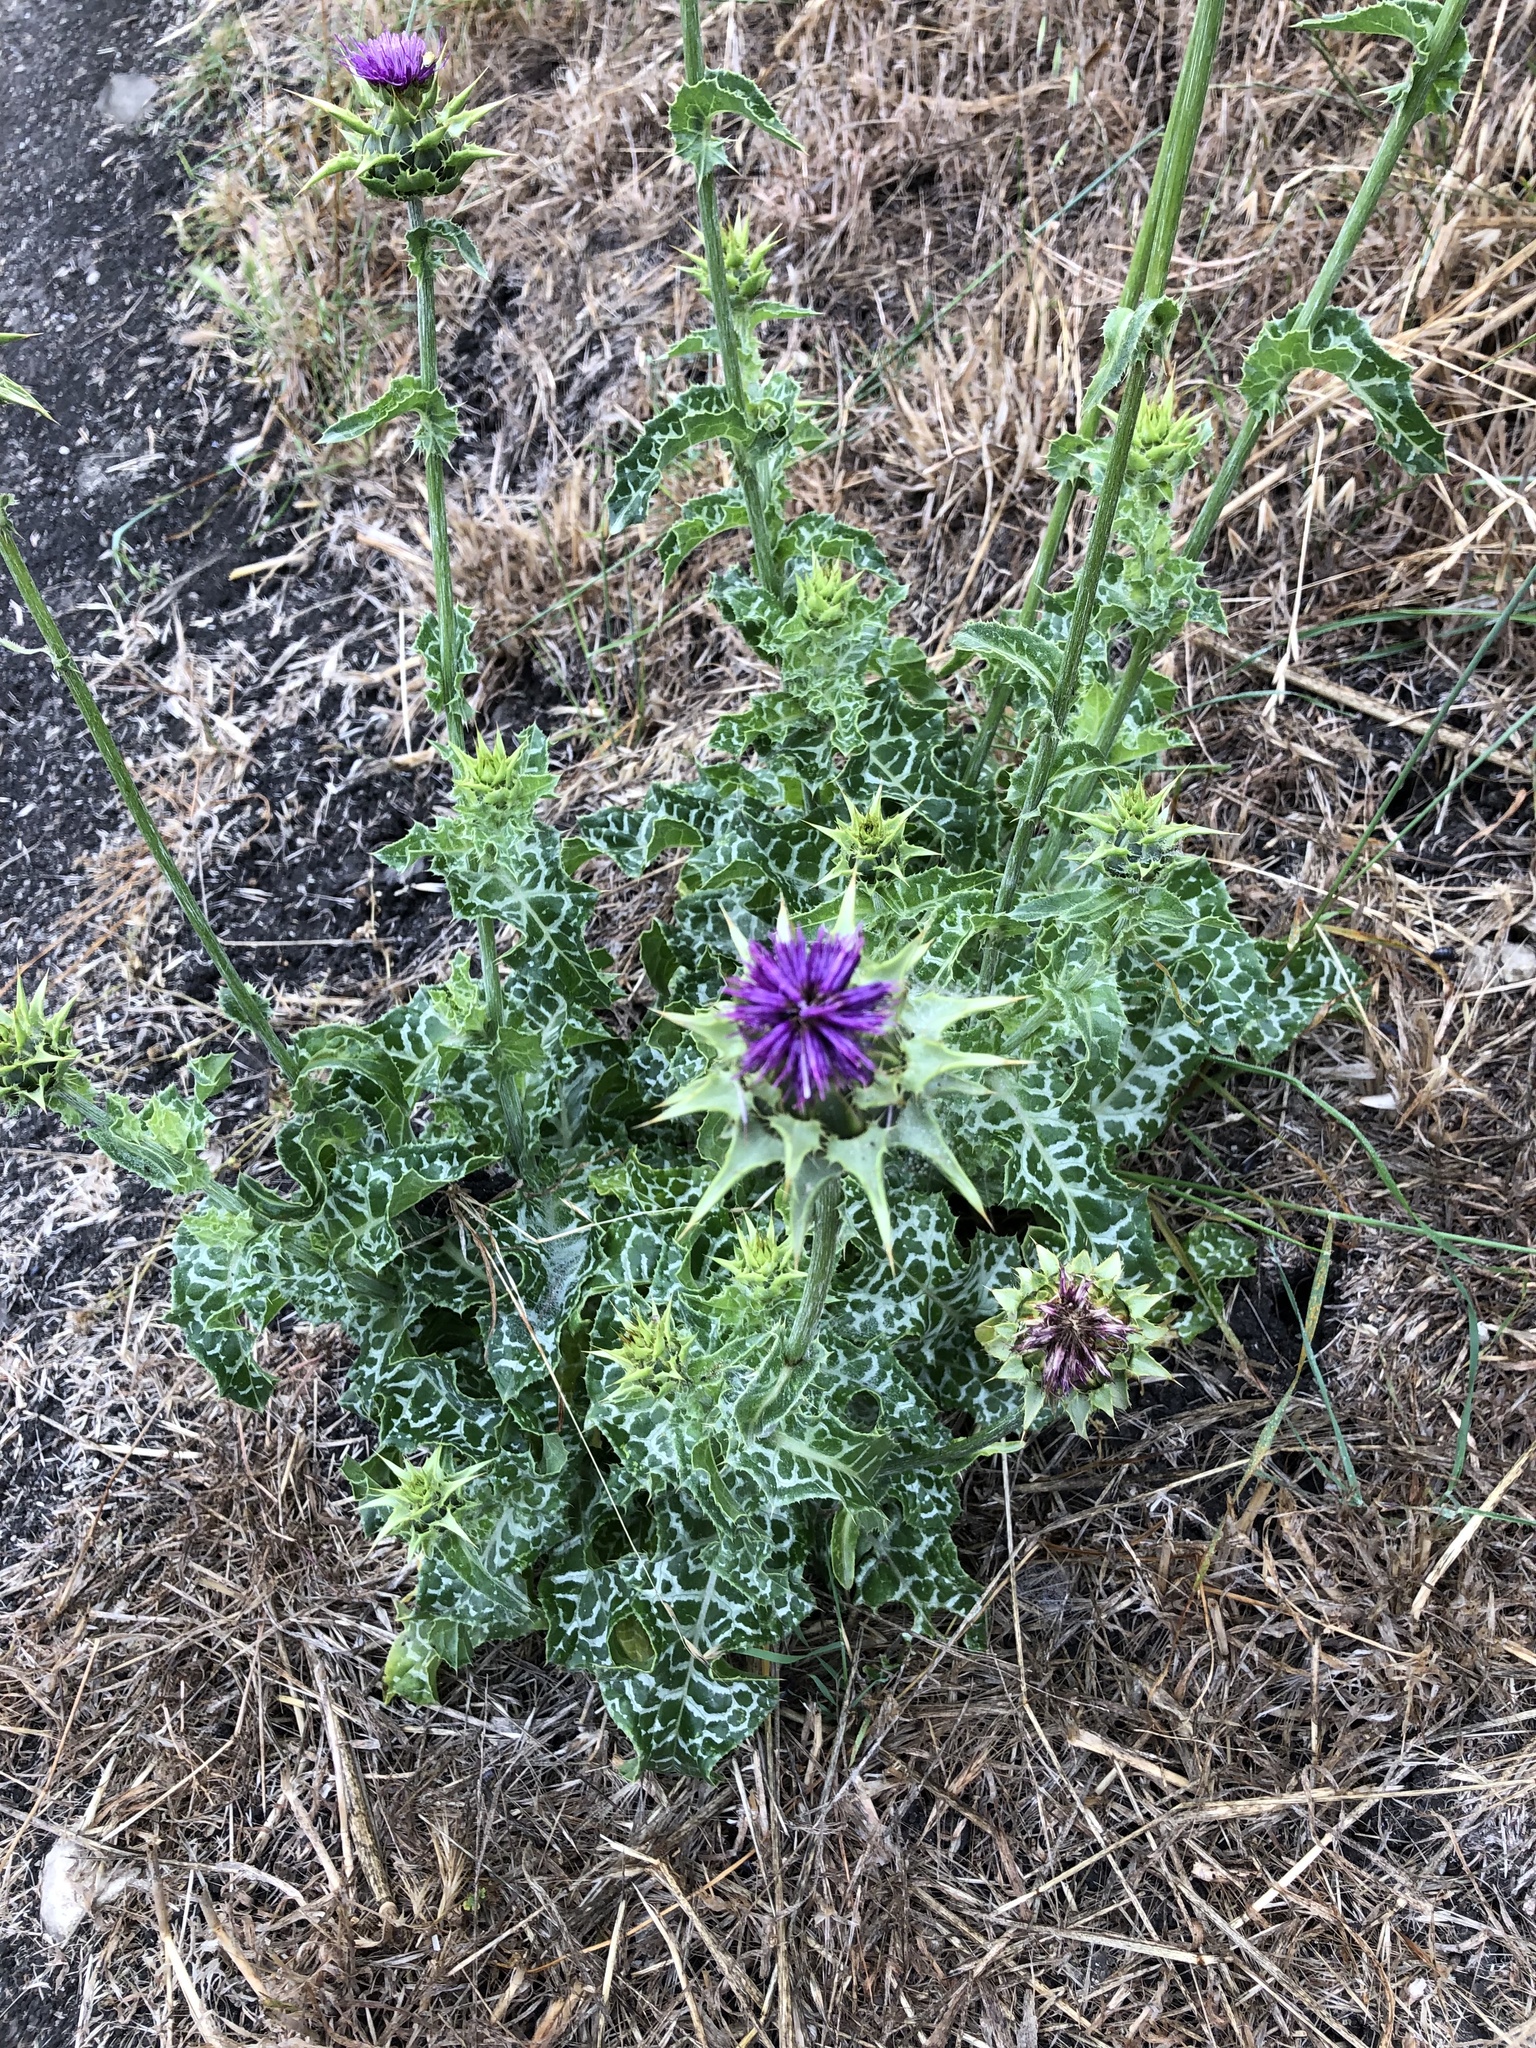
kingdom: Plantae
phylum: Tracheophyta
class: Magnoliopsida
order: Asterales
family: Asteraceae
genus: Silybum
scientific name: Silybum marianum
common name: Milk thistle
